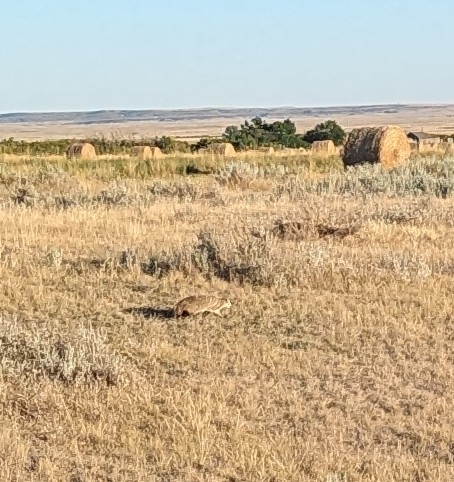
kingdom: Animalia
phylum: Chordata
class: Mammalia
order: Carnivora
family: Mustelidae
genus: Taxidea
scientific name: Taxidea taxus
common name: American badger
